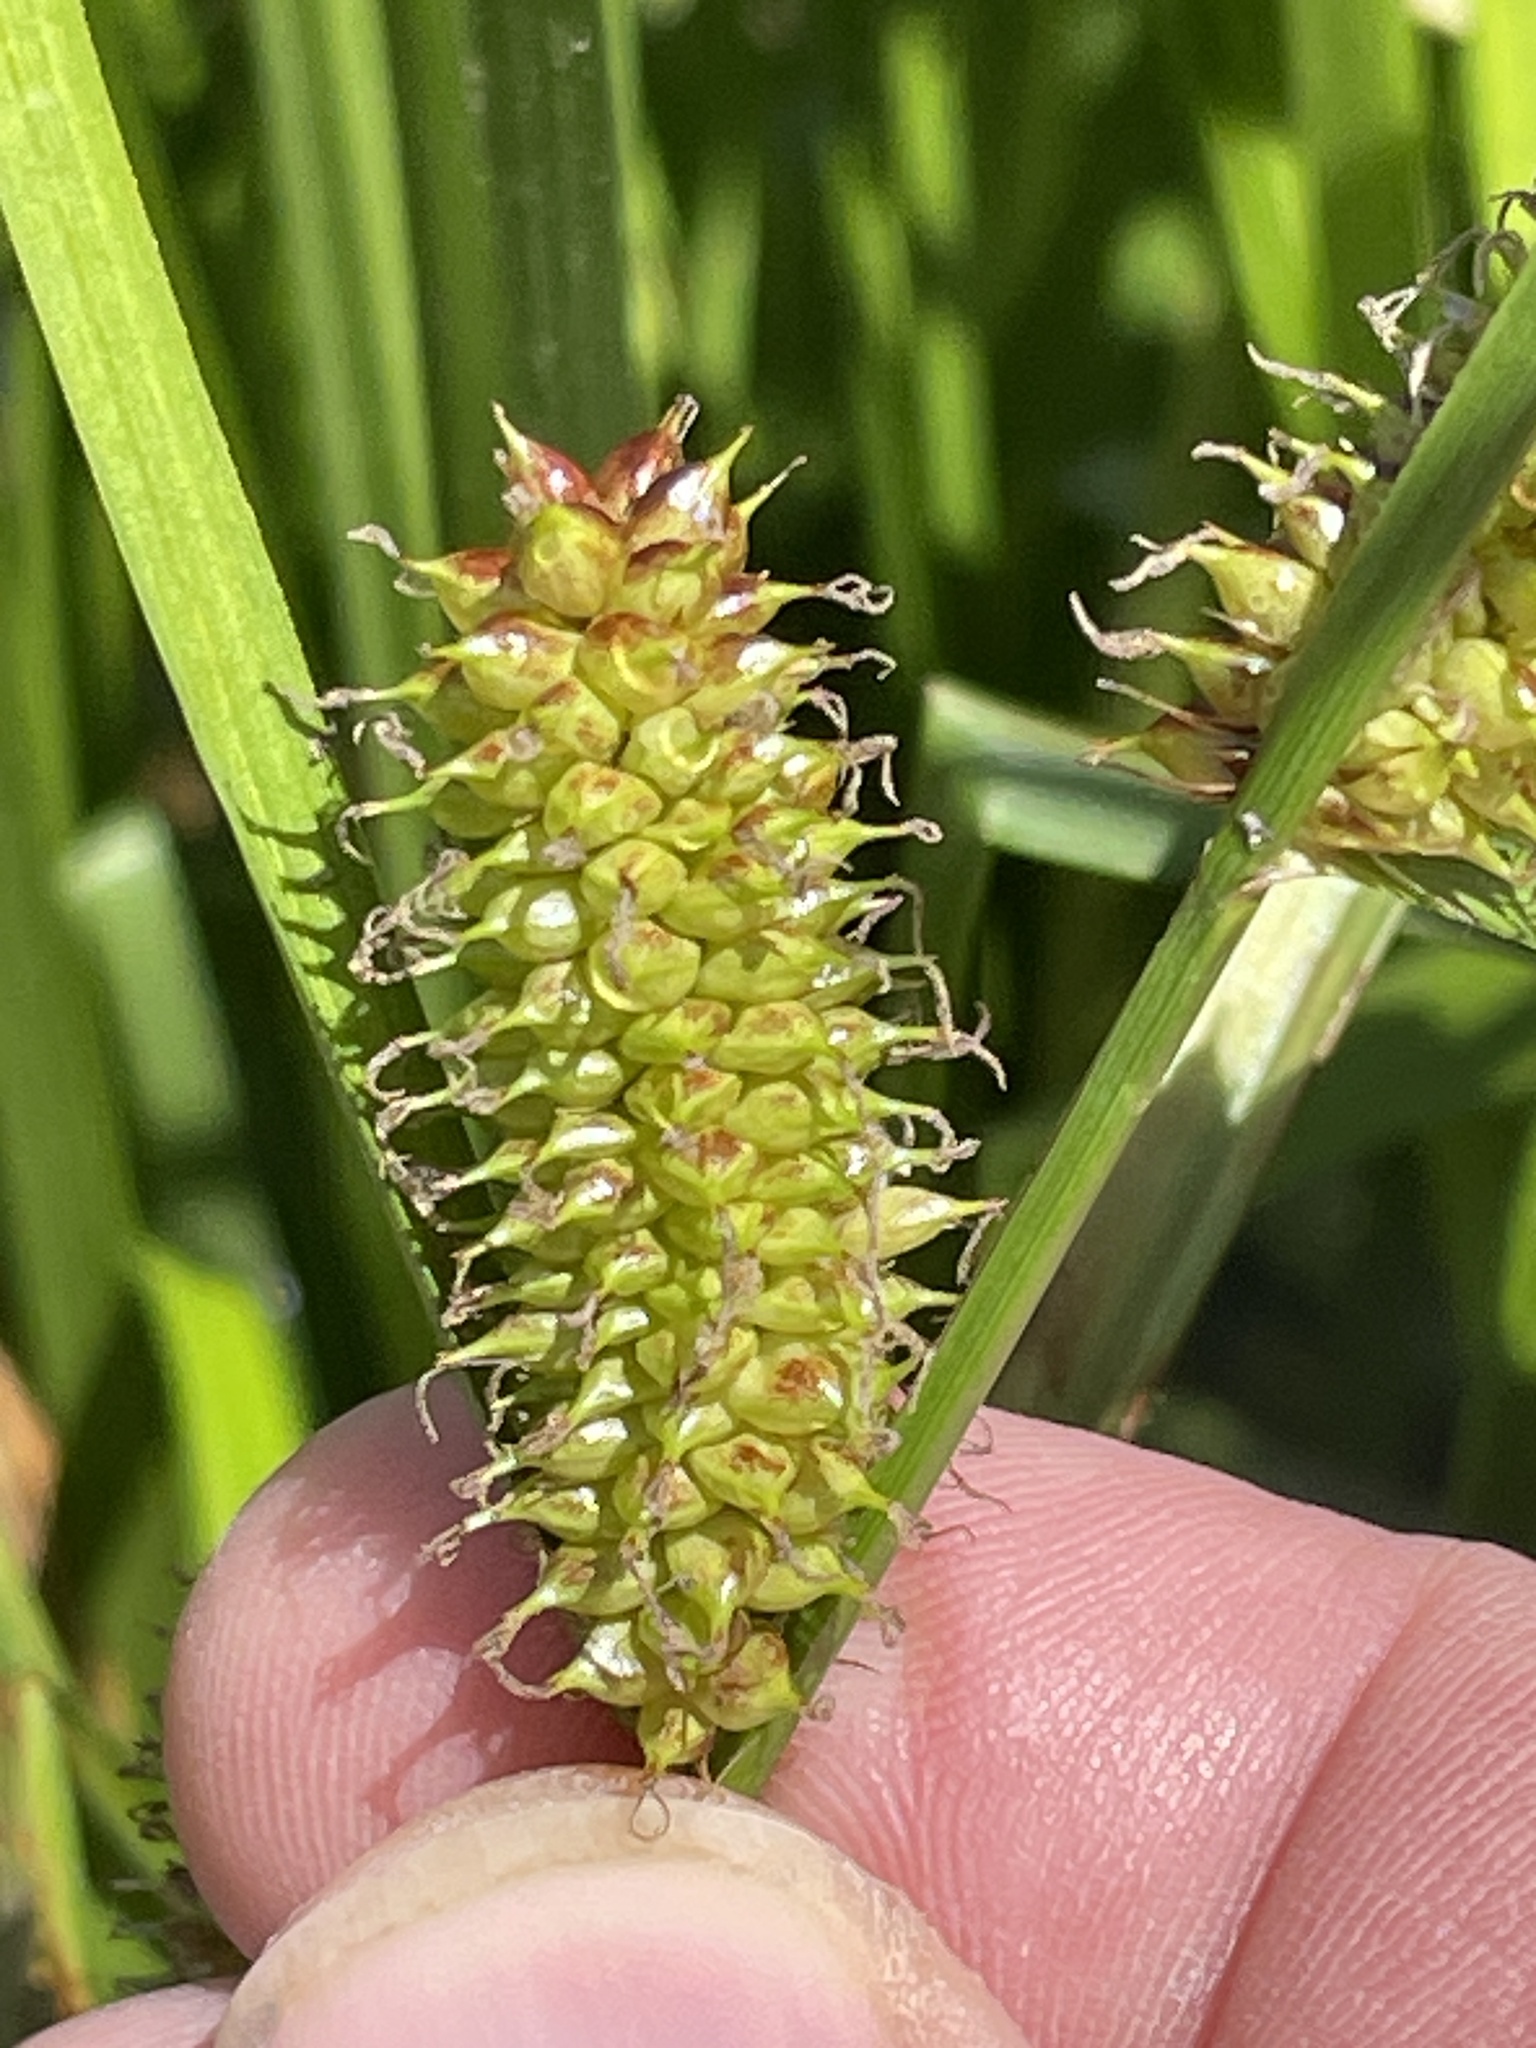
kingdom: Plantae
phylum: Tracheophyta
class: Liliopsida
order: Poales
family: Cyperaceae
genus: Carex
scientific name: Carex utriculata
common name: Beaked sedge
